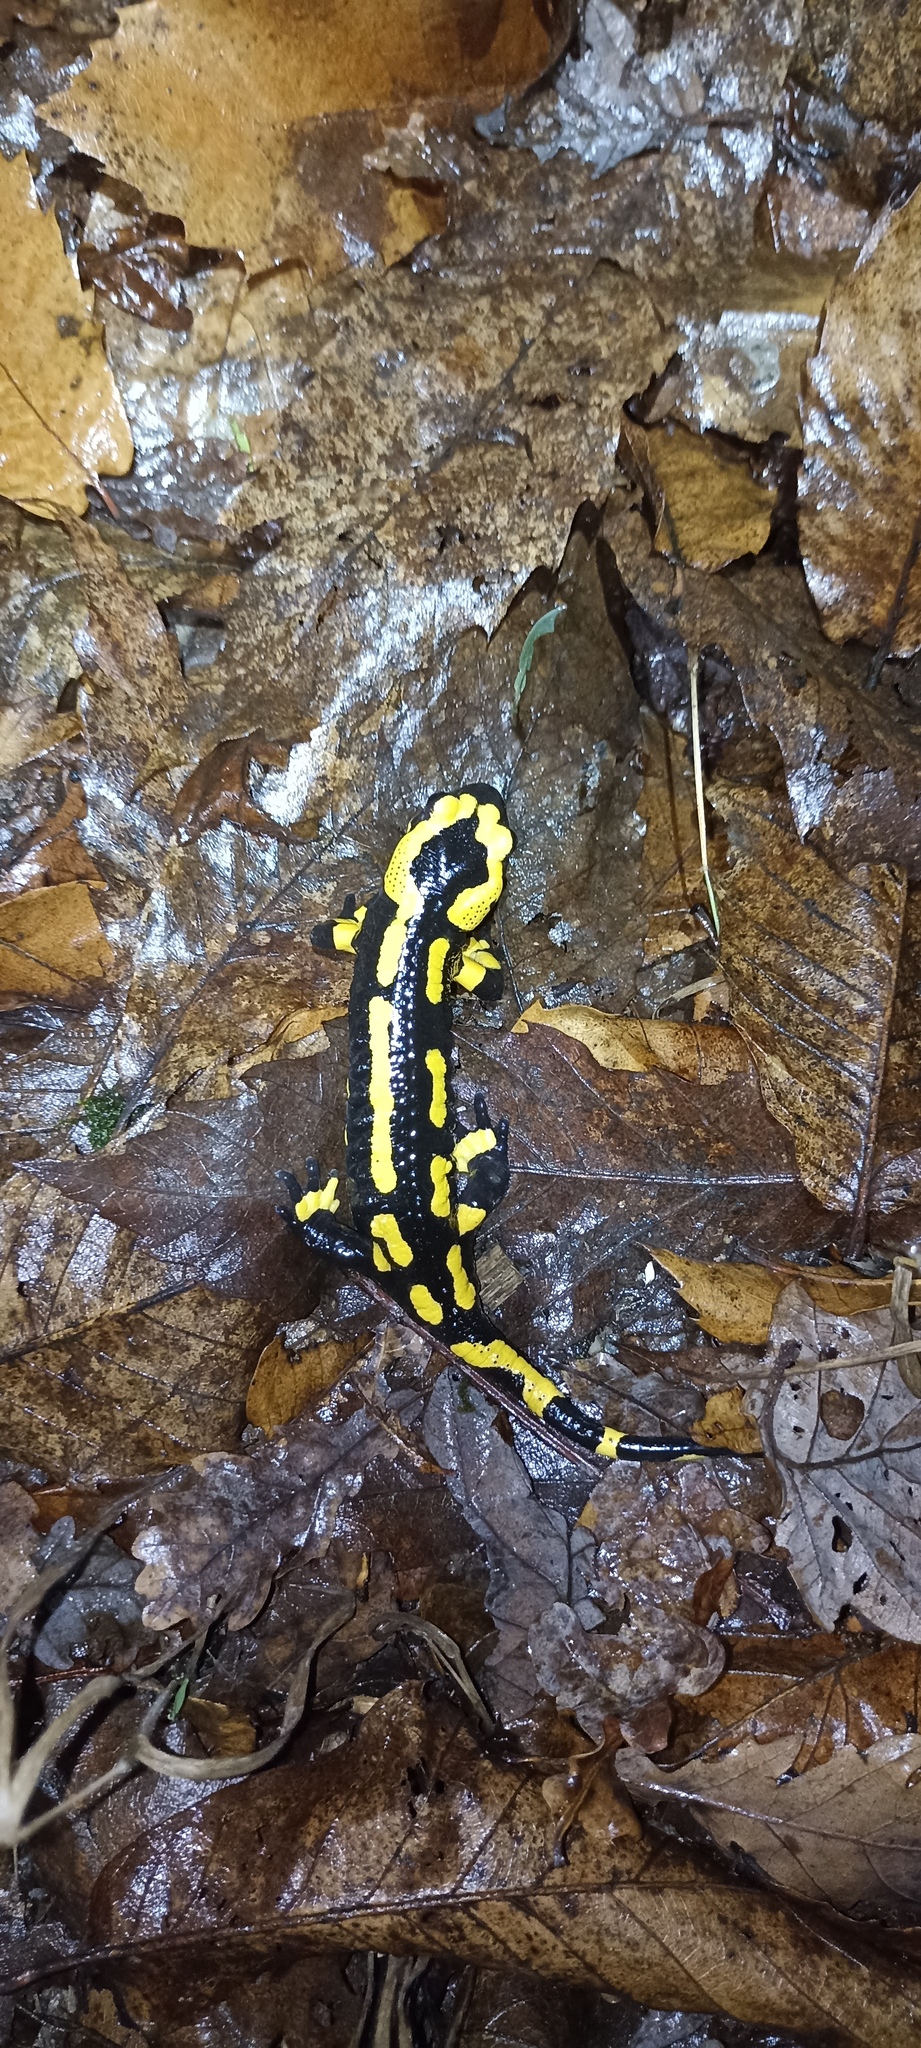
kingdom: Animalia
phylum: Chordata
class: Amphibia
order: Caudata
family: Salamandridae
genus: Salamandra
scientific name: Salamandra salamandra
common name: Fire salamander
